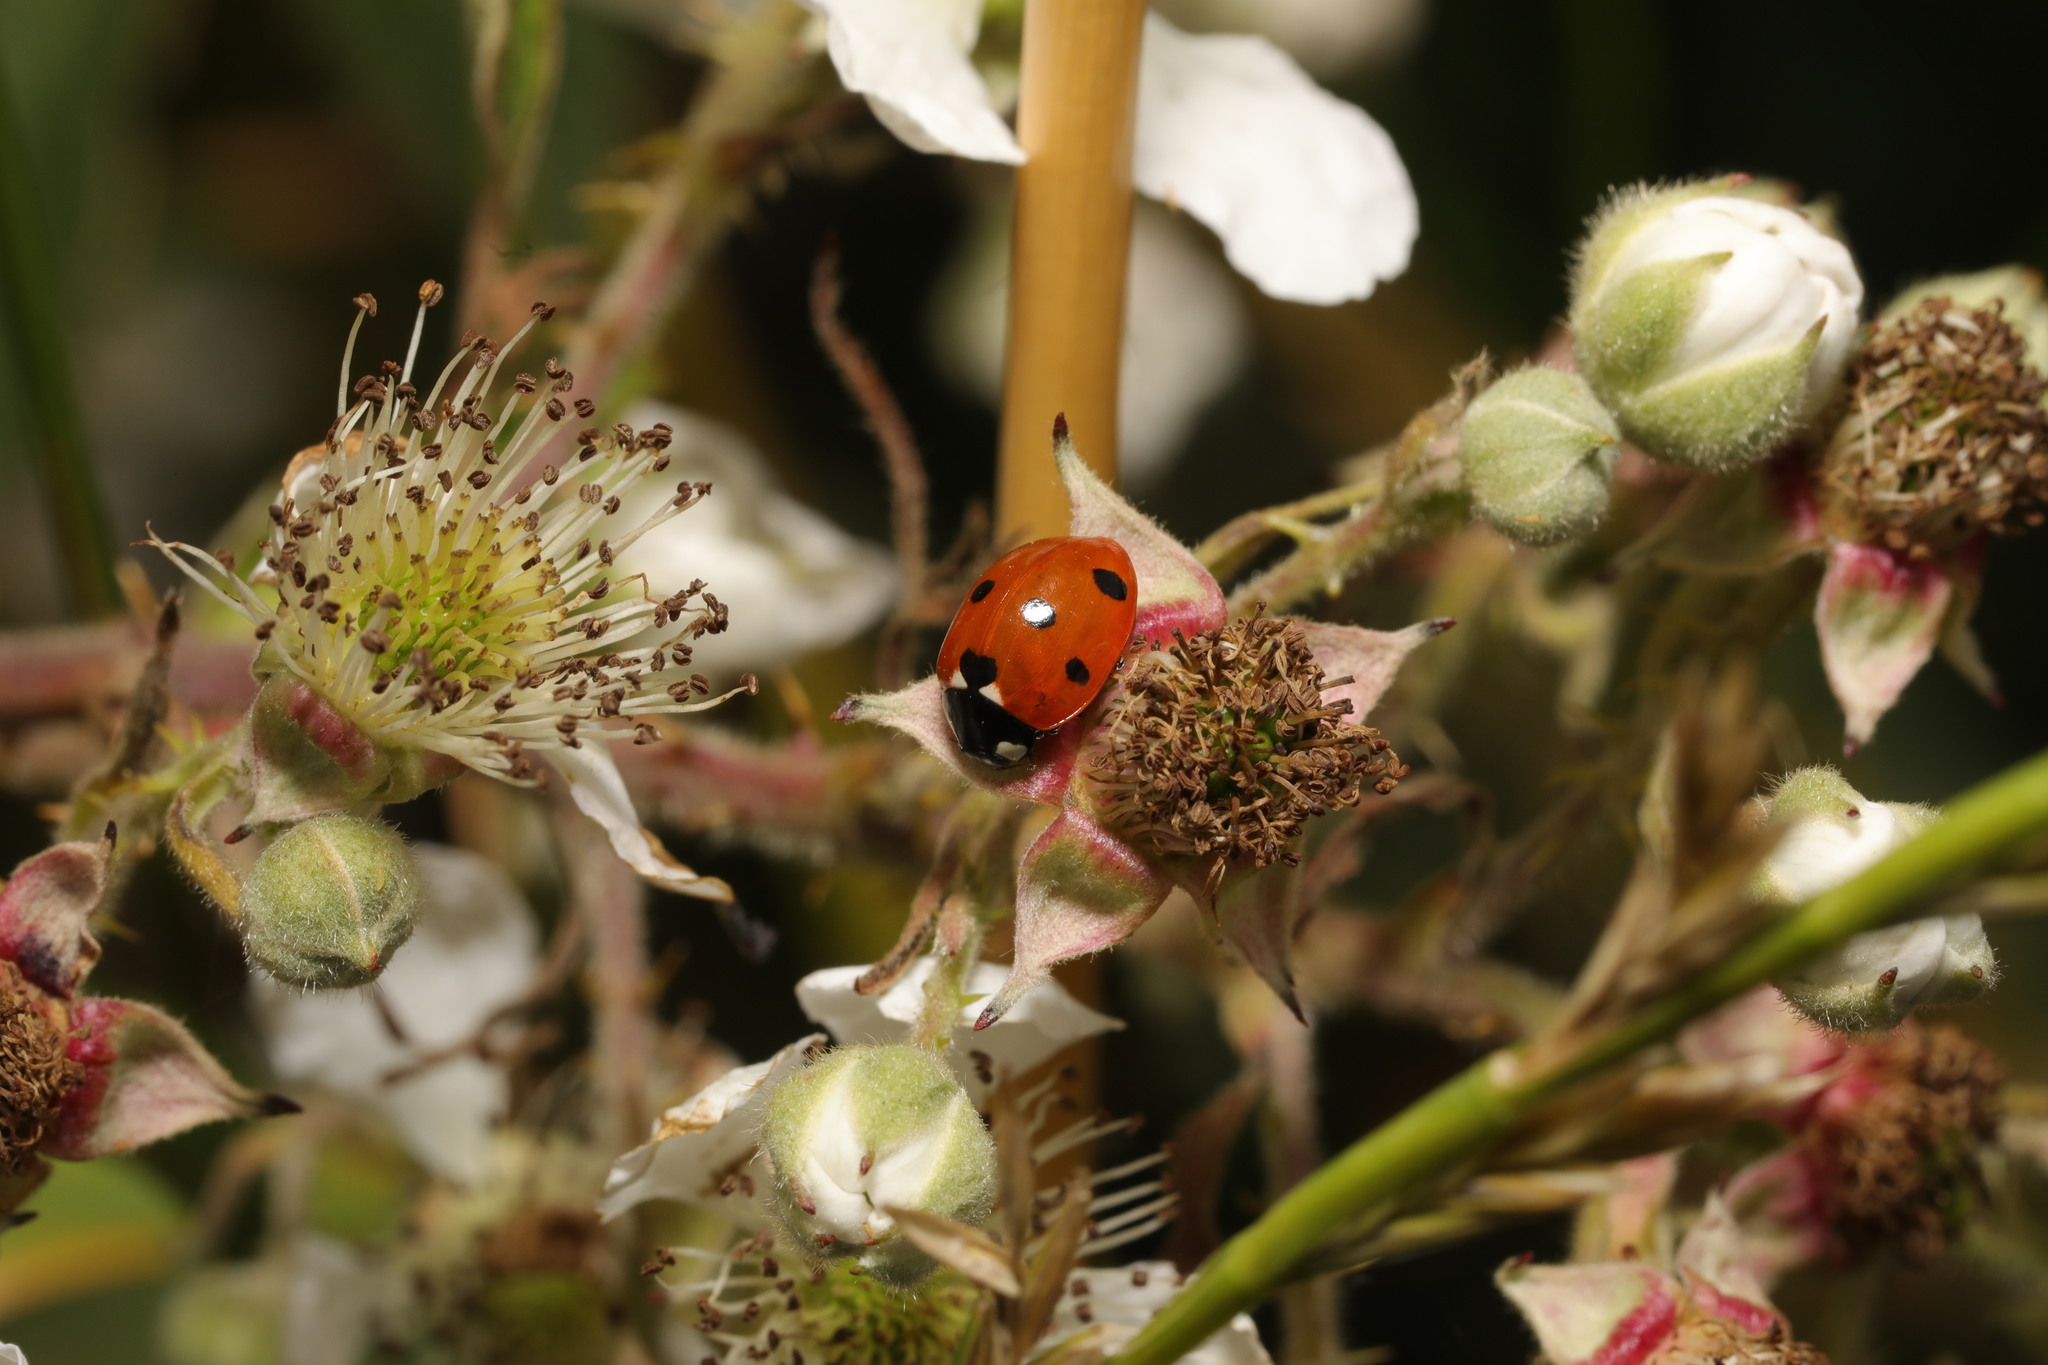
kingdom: Animalia
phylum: Arthropoda
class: Insecta
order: Coleoptera
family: Coccinellidae
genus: Coccinella
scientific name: Coccinella septempunctata
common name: Sevenspotted lady beetle
